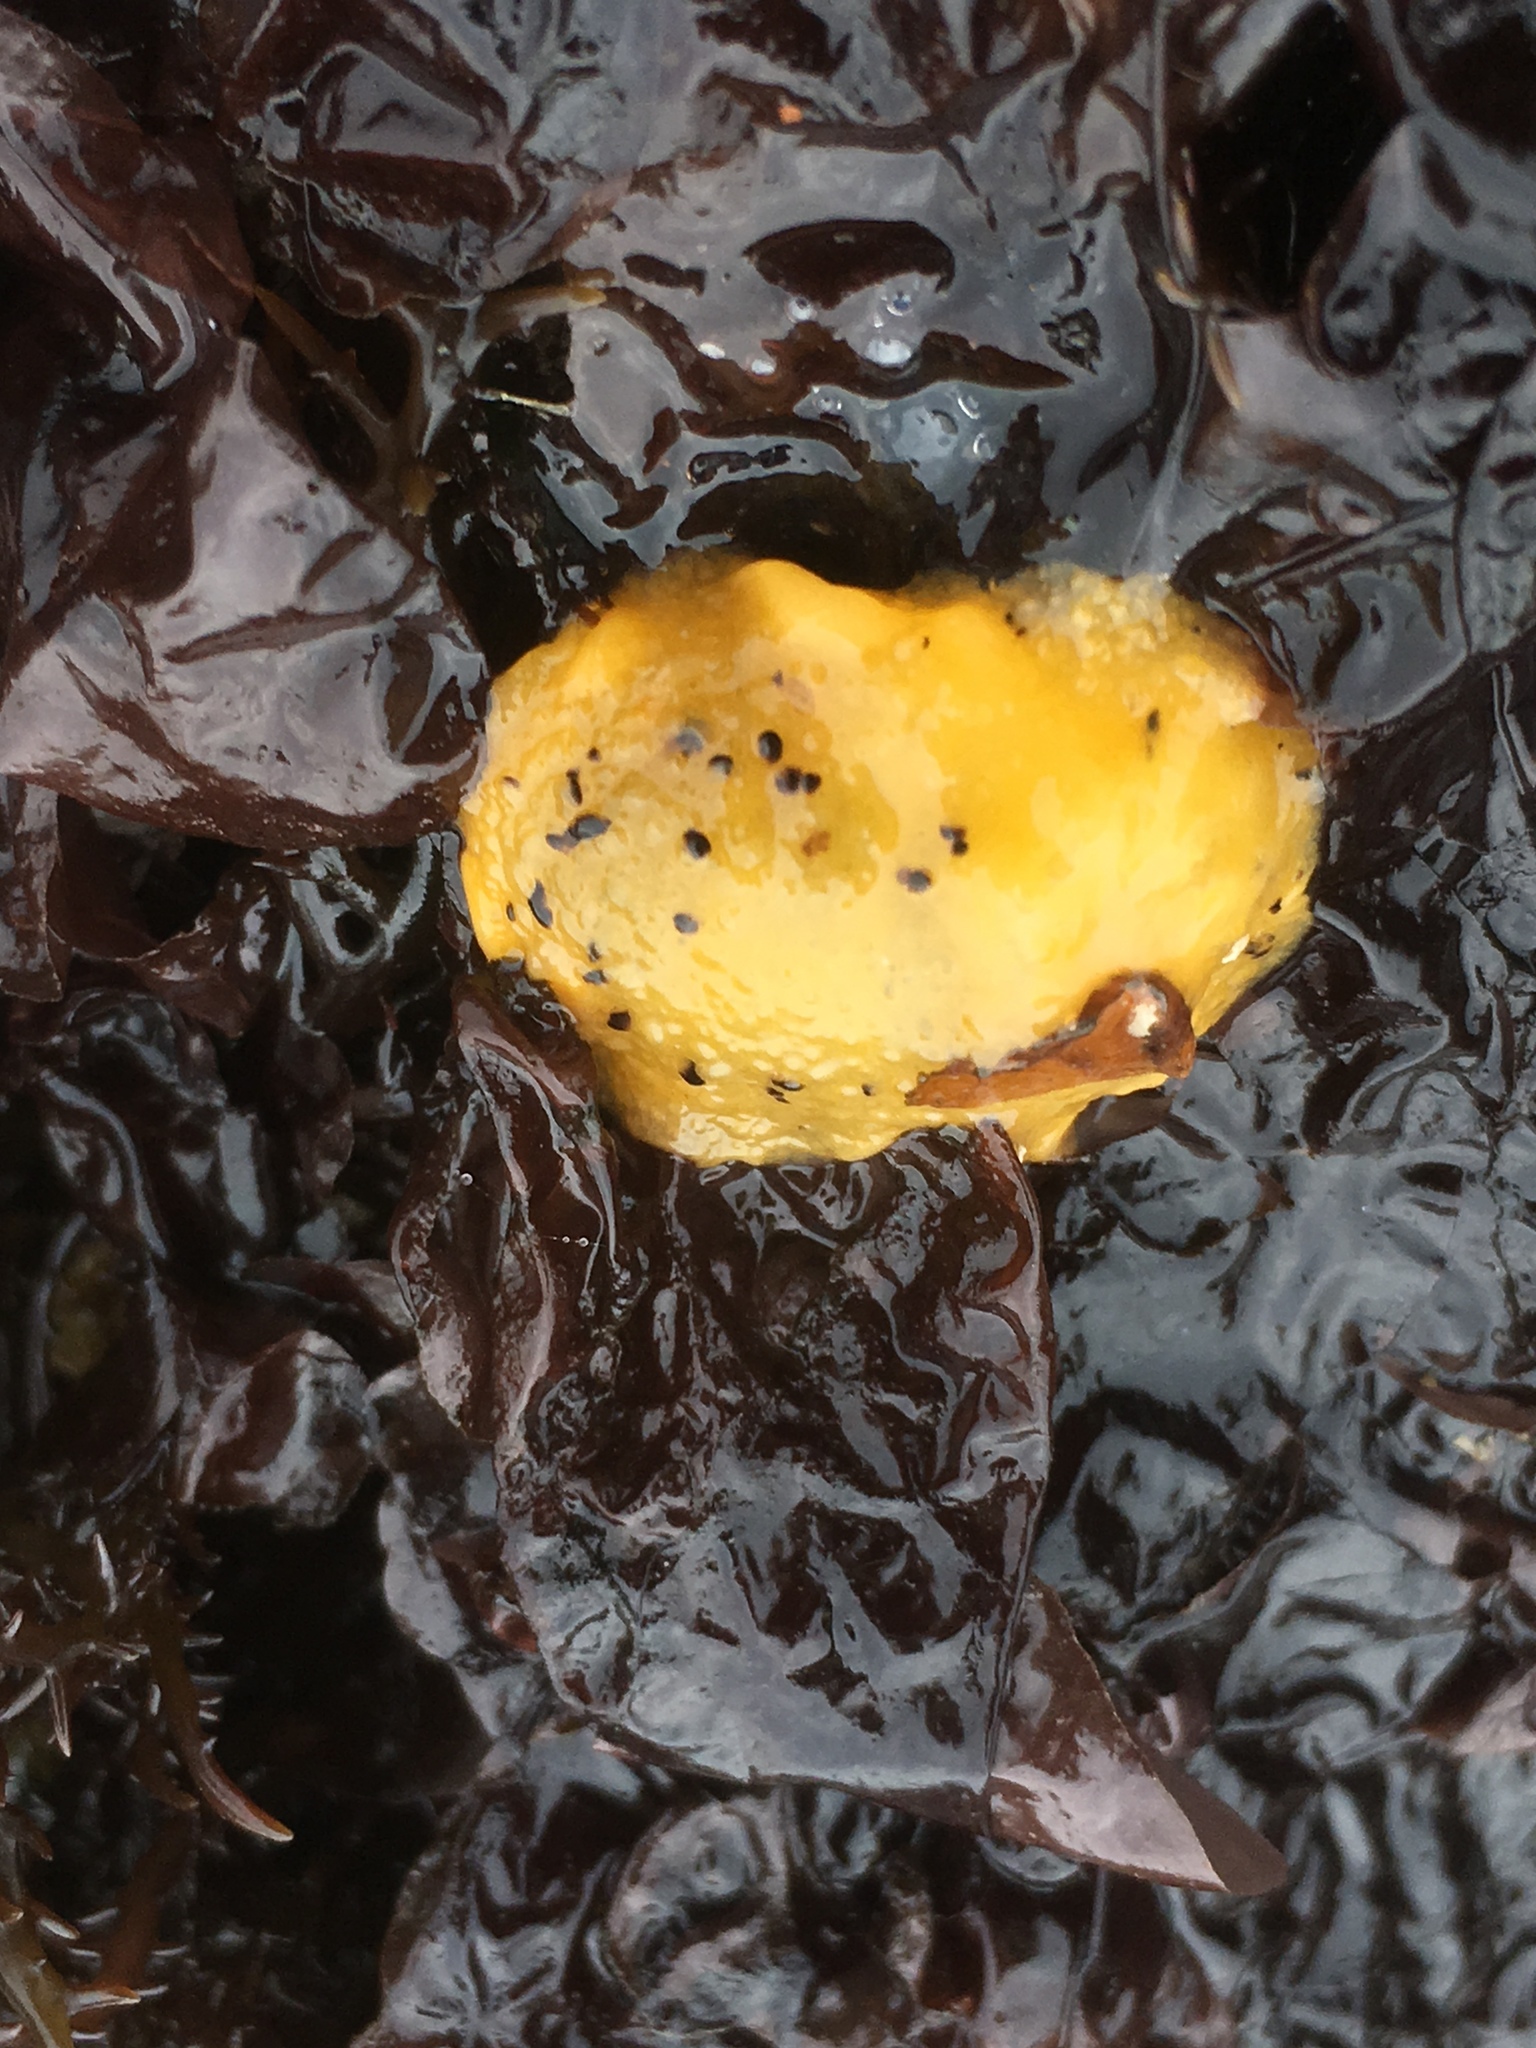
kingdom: Animalia
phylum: Mollusca
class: Gastropoda
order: Nudibranchia
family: Dorididae
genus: Doris
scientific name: Doris montereyensis
